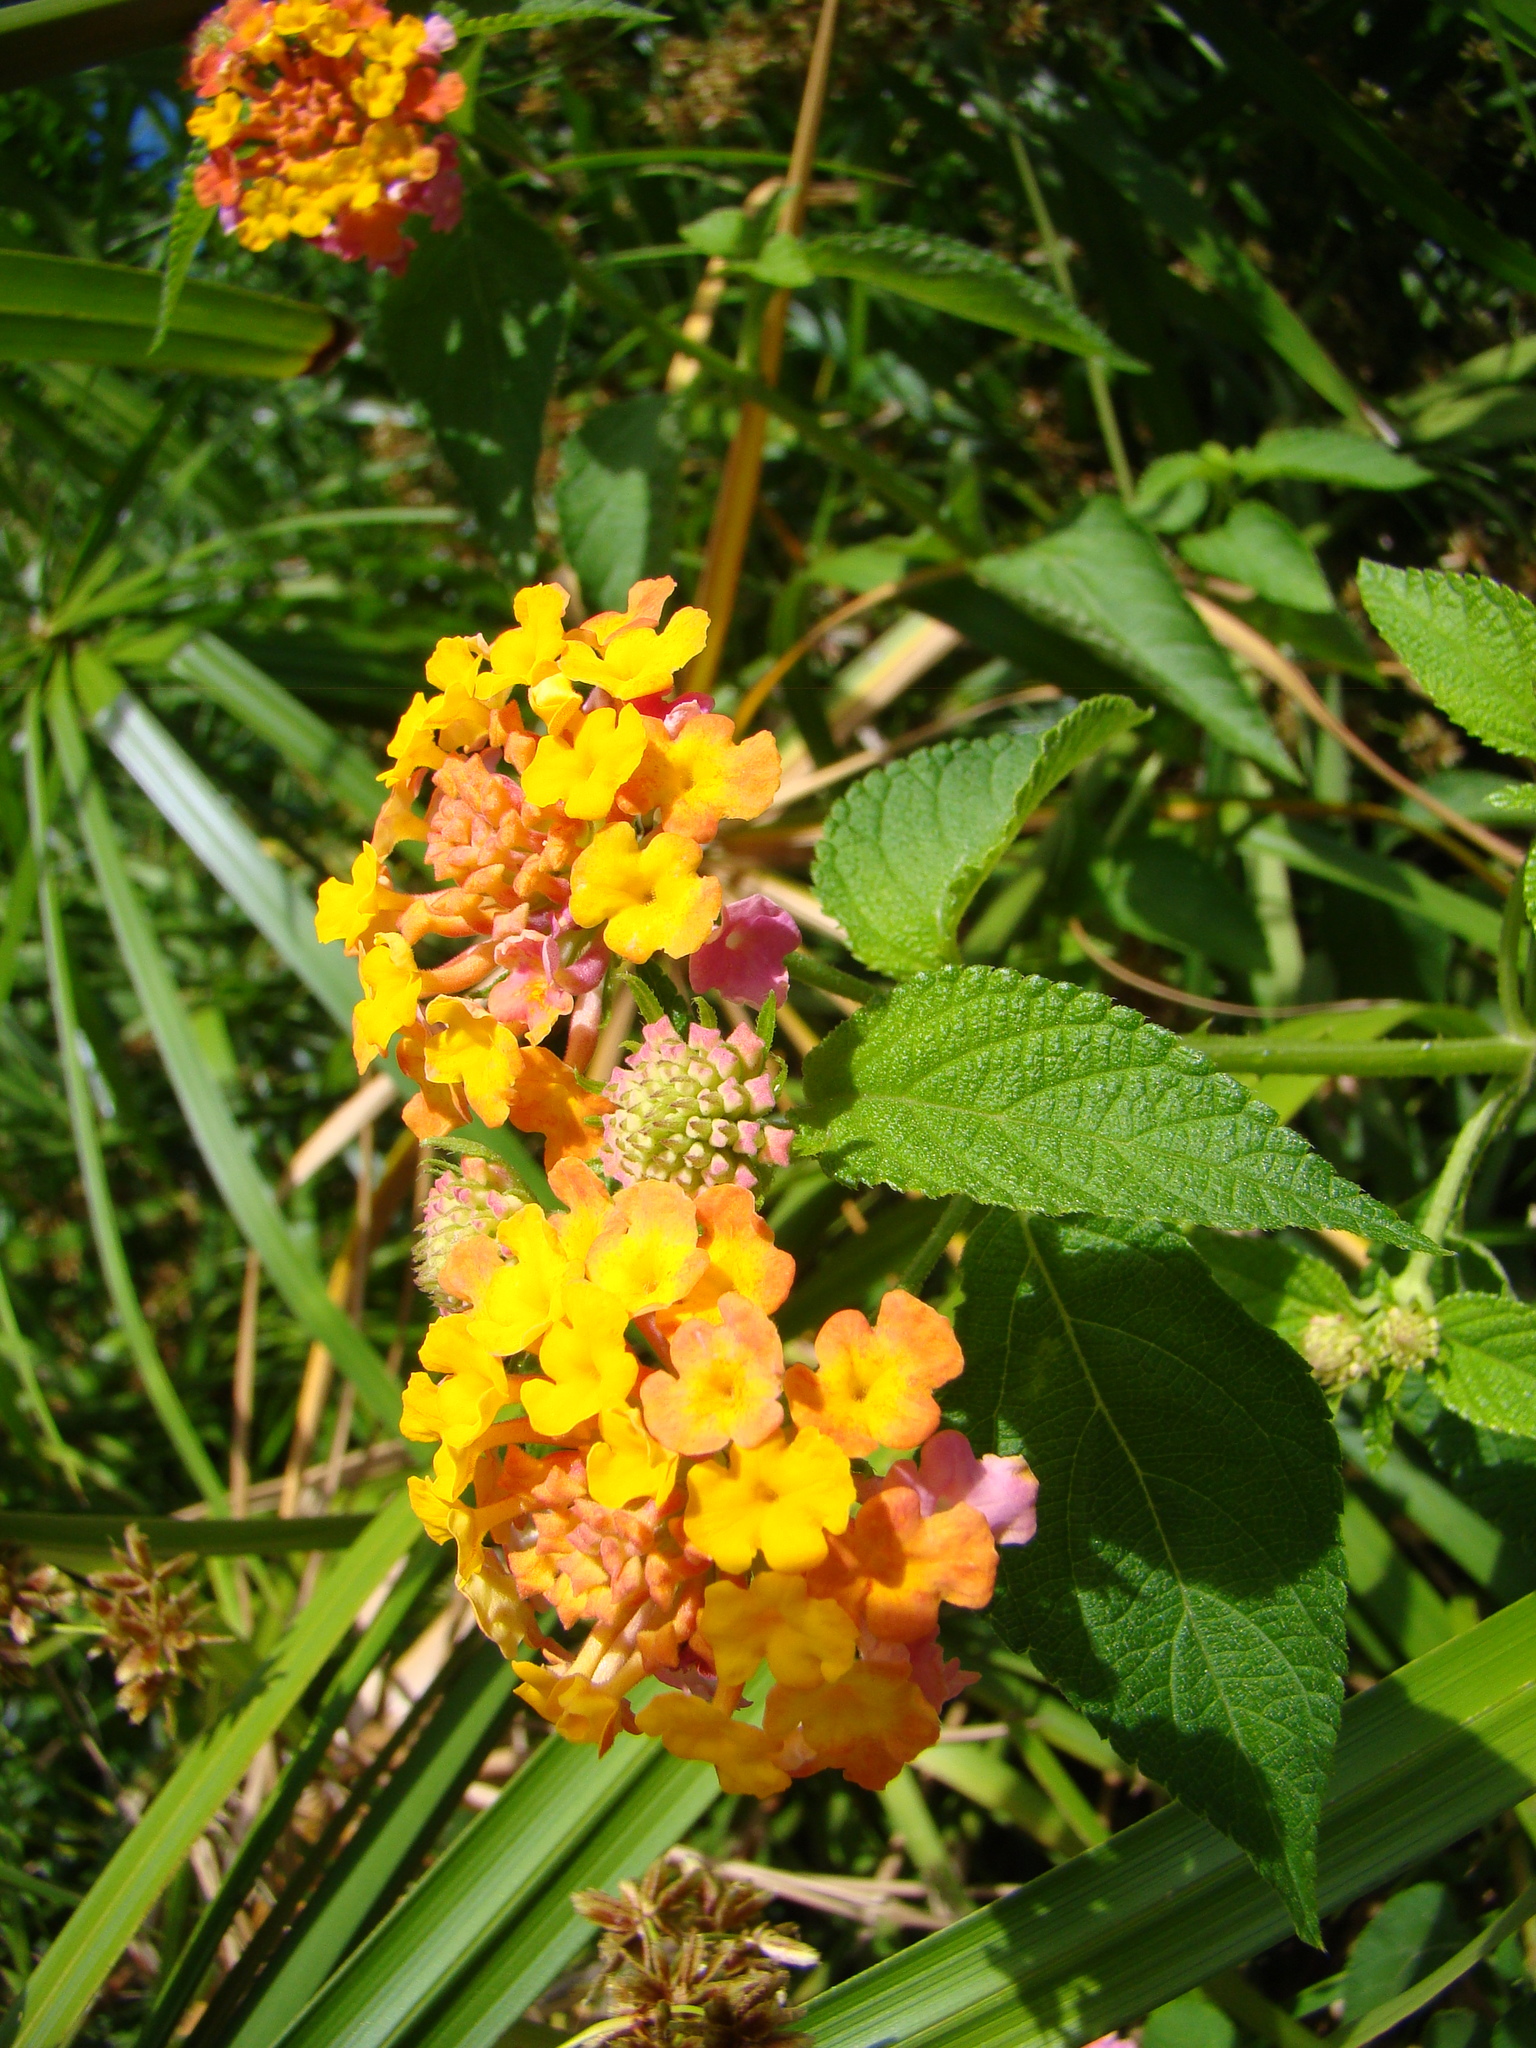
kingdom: Plantae
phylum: Tracheophyta
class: Magnoliopsida
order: Lamiales
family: Verbenaceae
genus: Lantana
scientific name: Lantana camara
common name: Lantana
